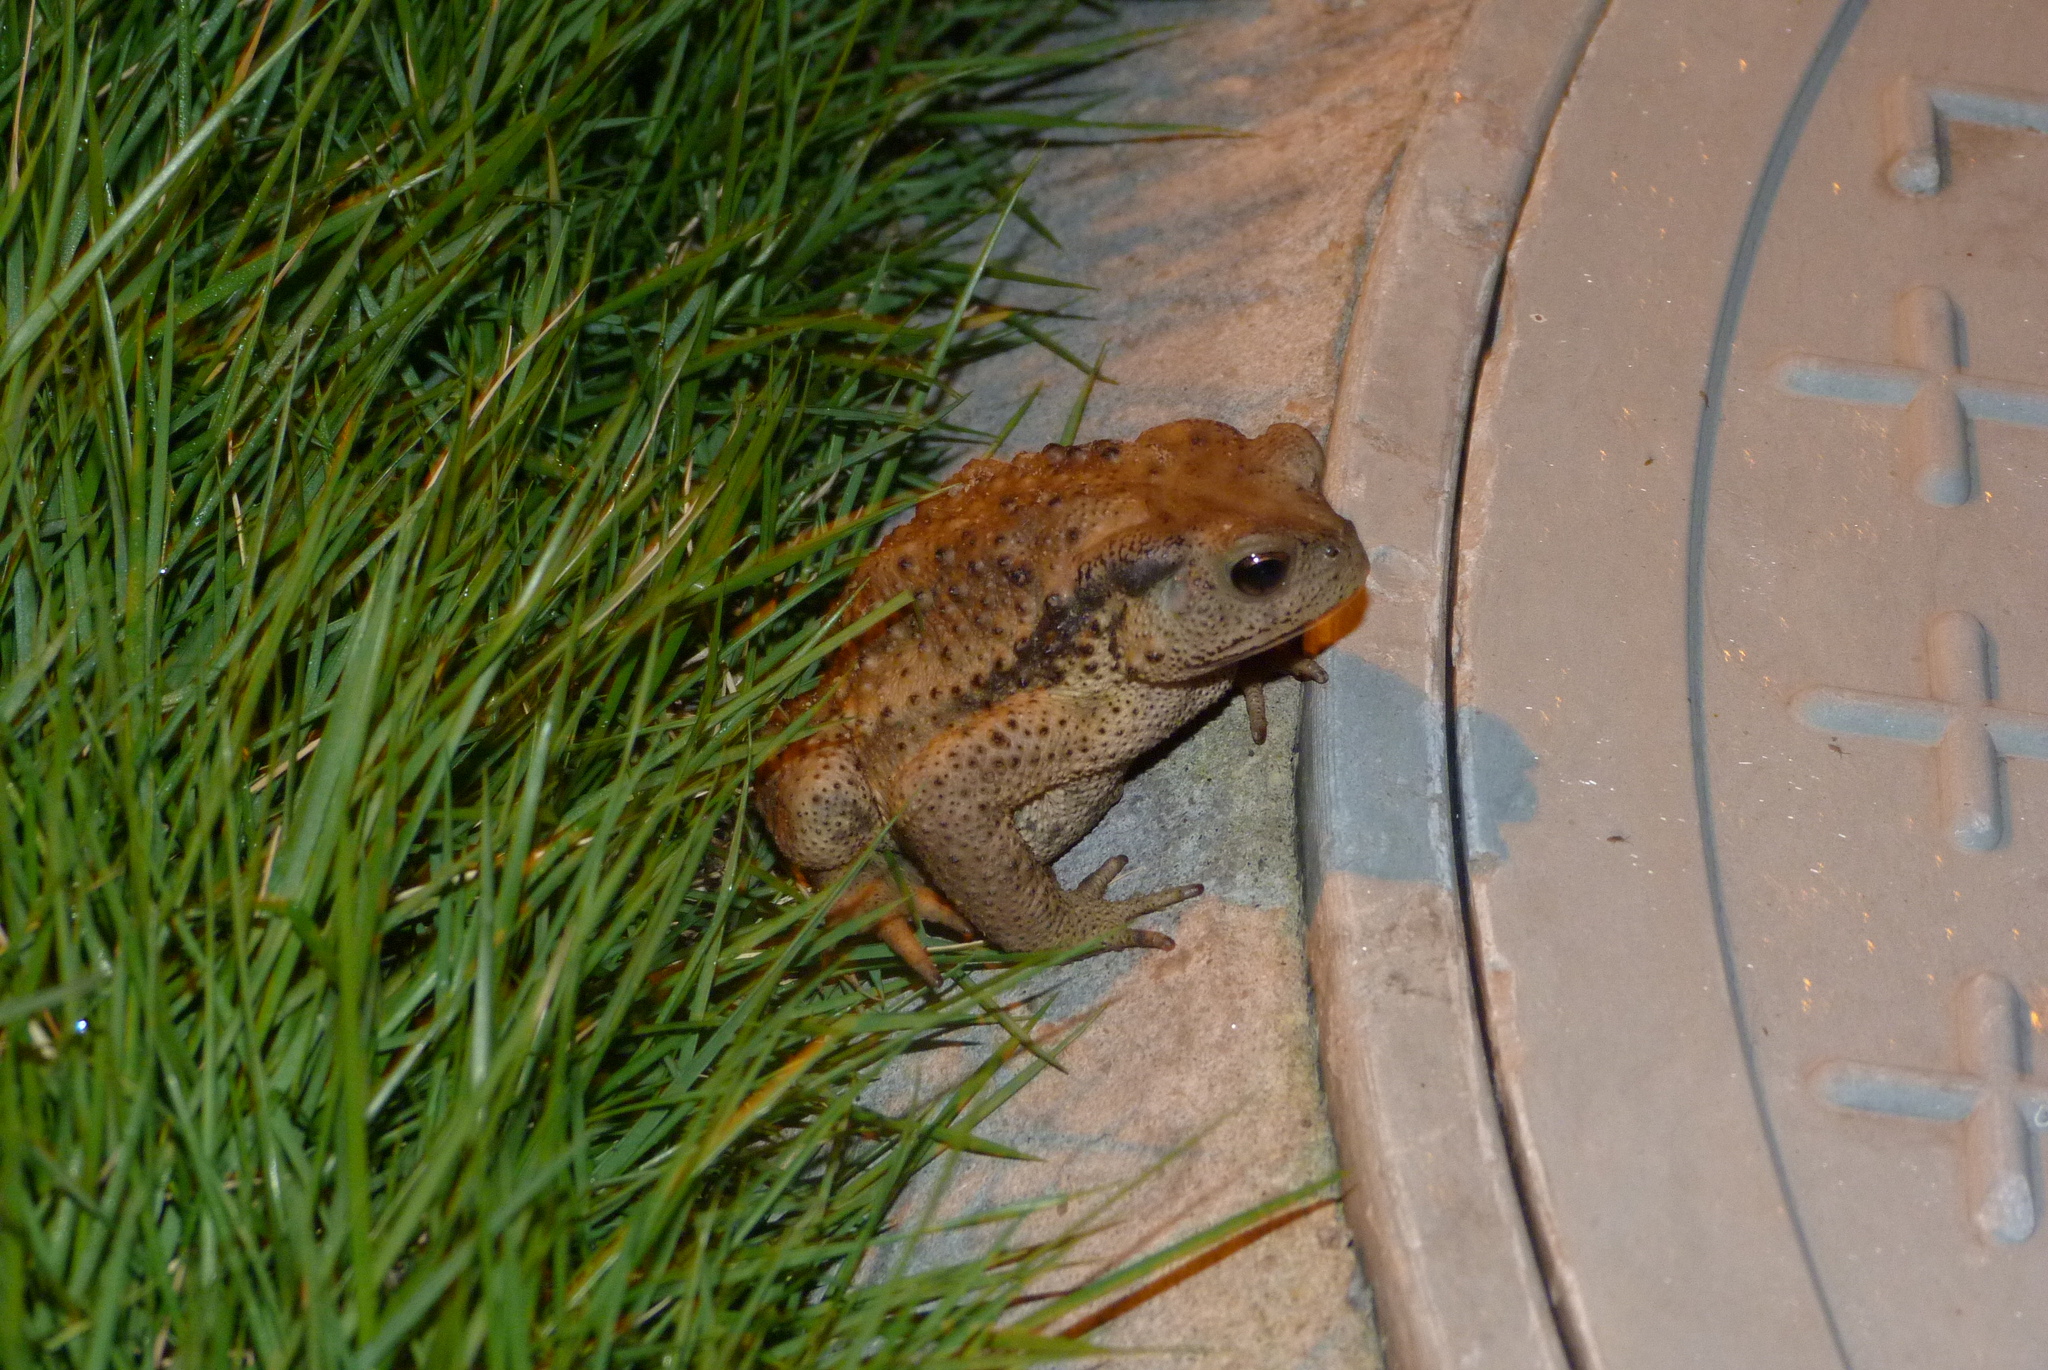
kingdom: Animalia
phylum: Chordata
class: Amphibia
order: Anura
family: Bufonidae
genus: Bufo
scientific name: Bufo gargarizans
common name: Asiatic toad
